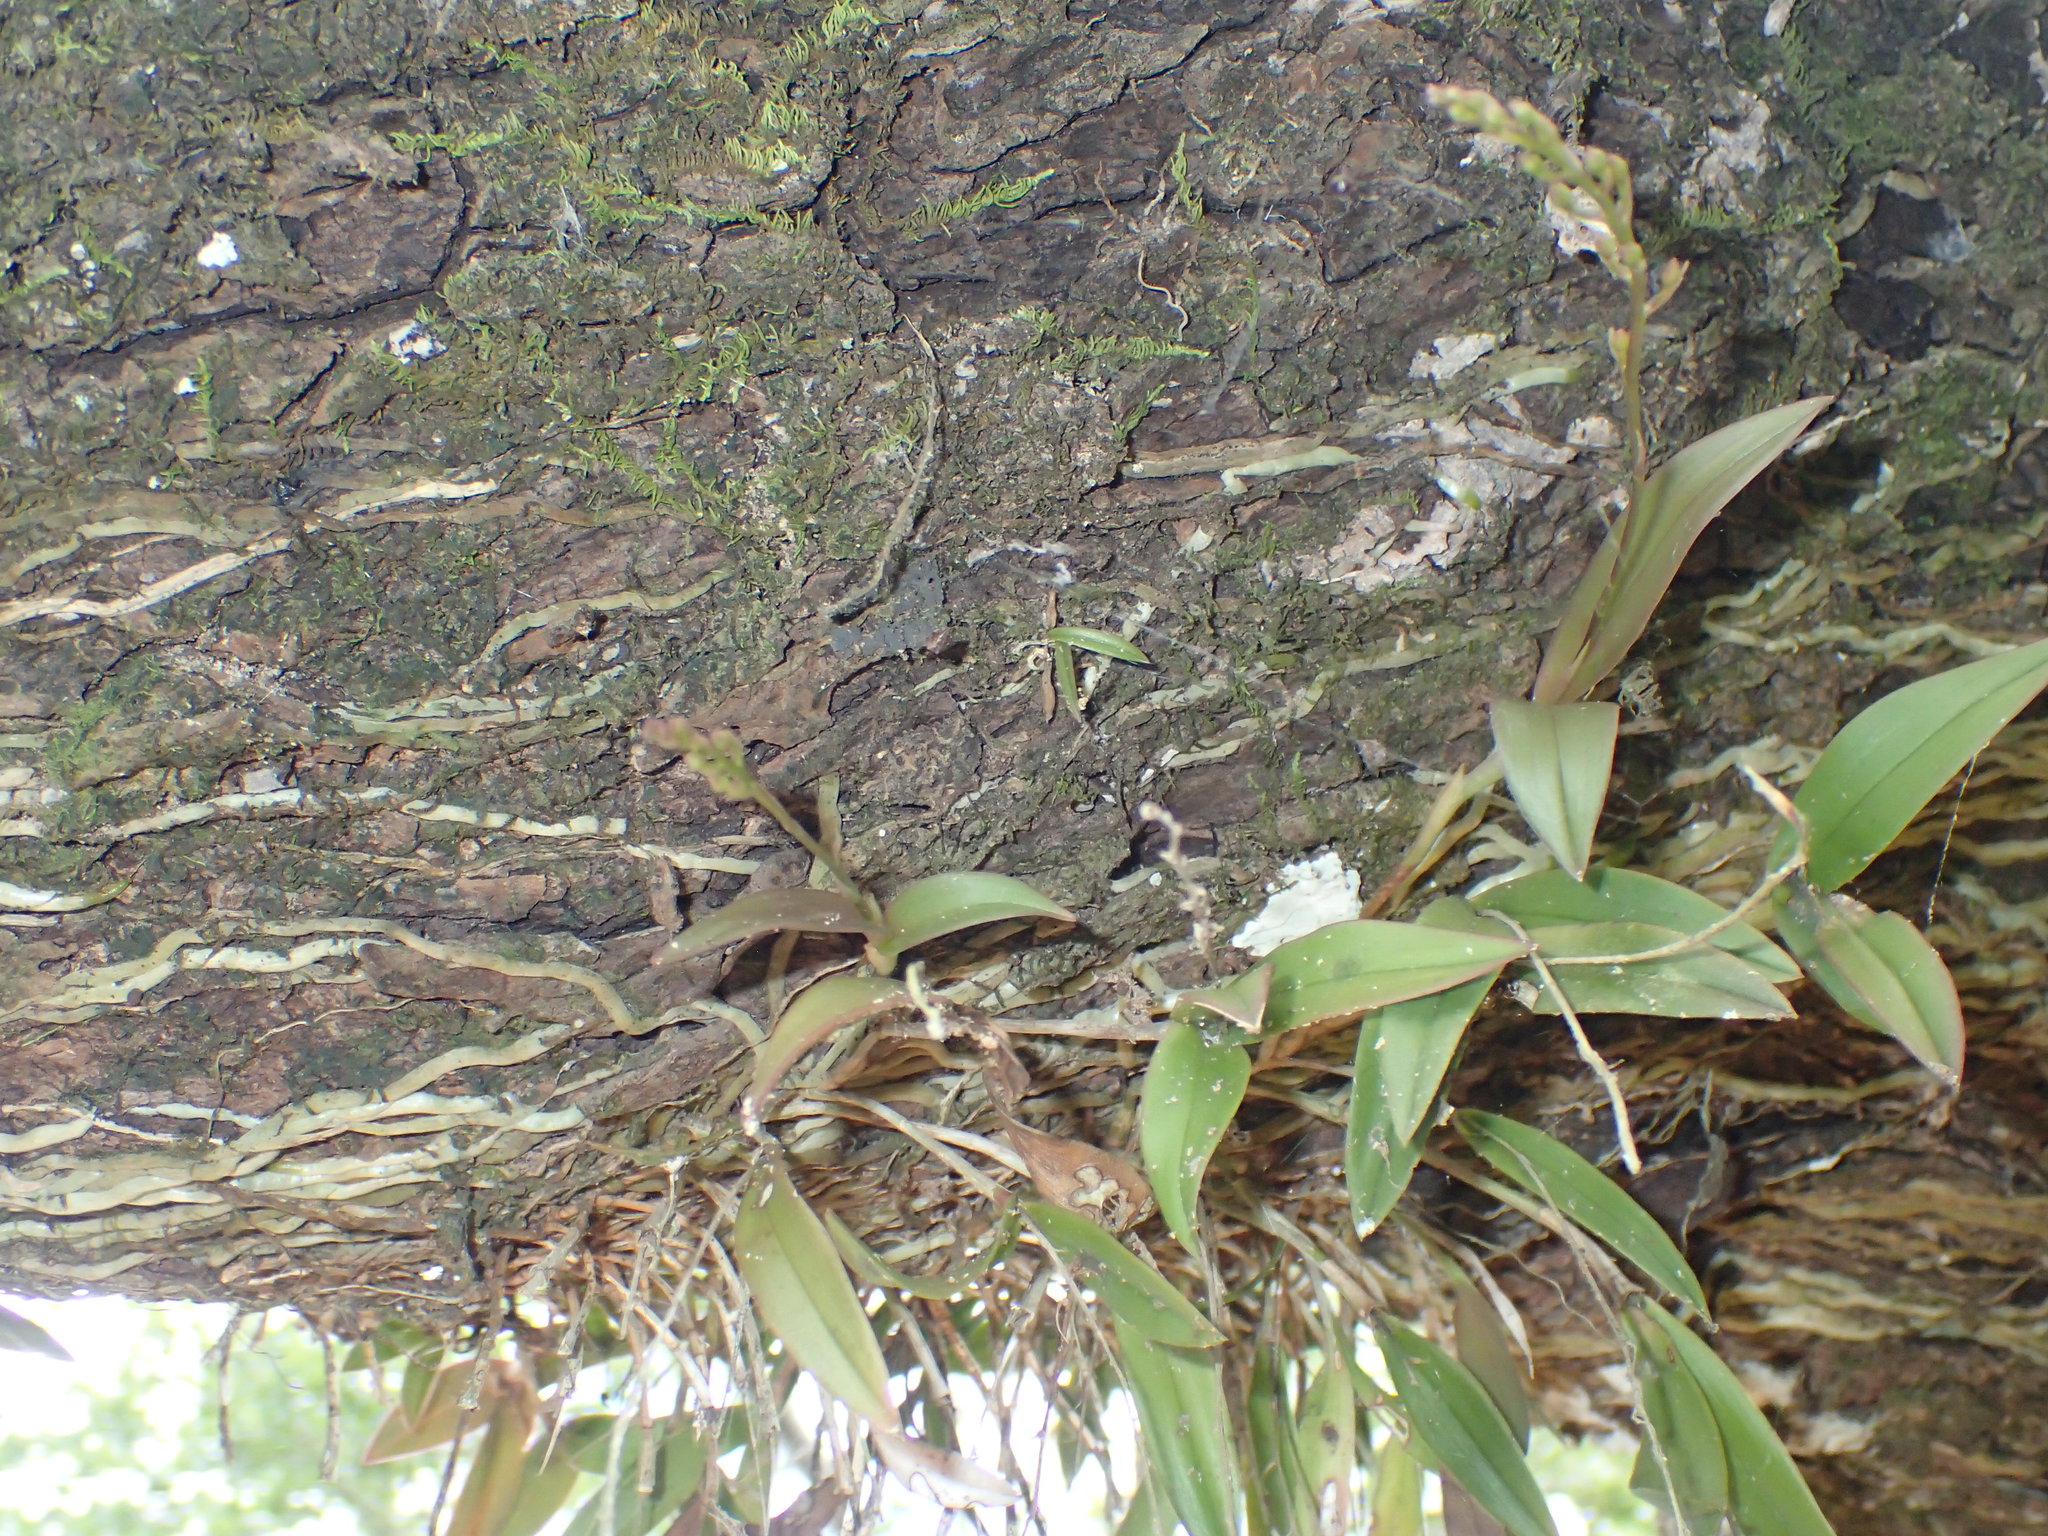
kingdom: Plantae
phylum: Tracheophyta
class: Liliopsida
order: Asparagales
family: Orchidaceae
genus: Epidendrum
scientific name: Epidendrum conopseum
